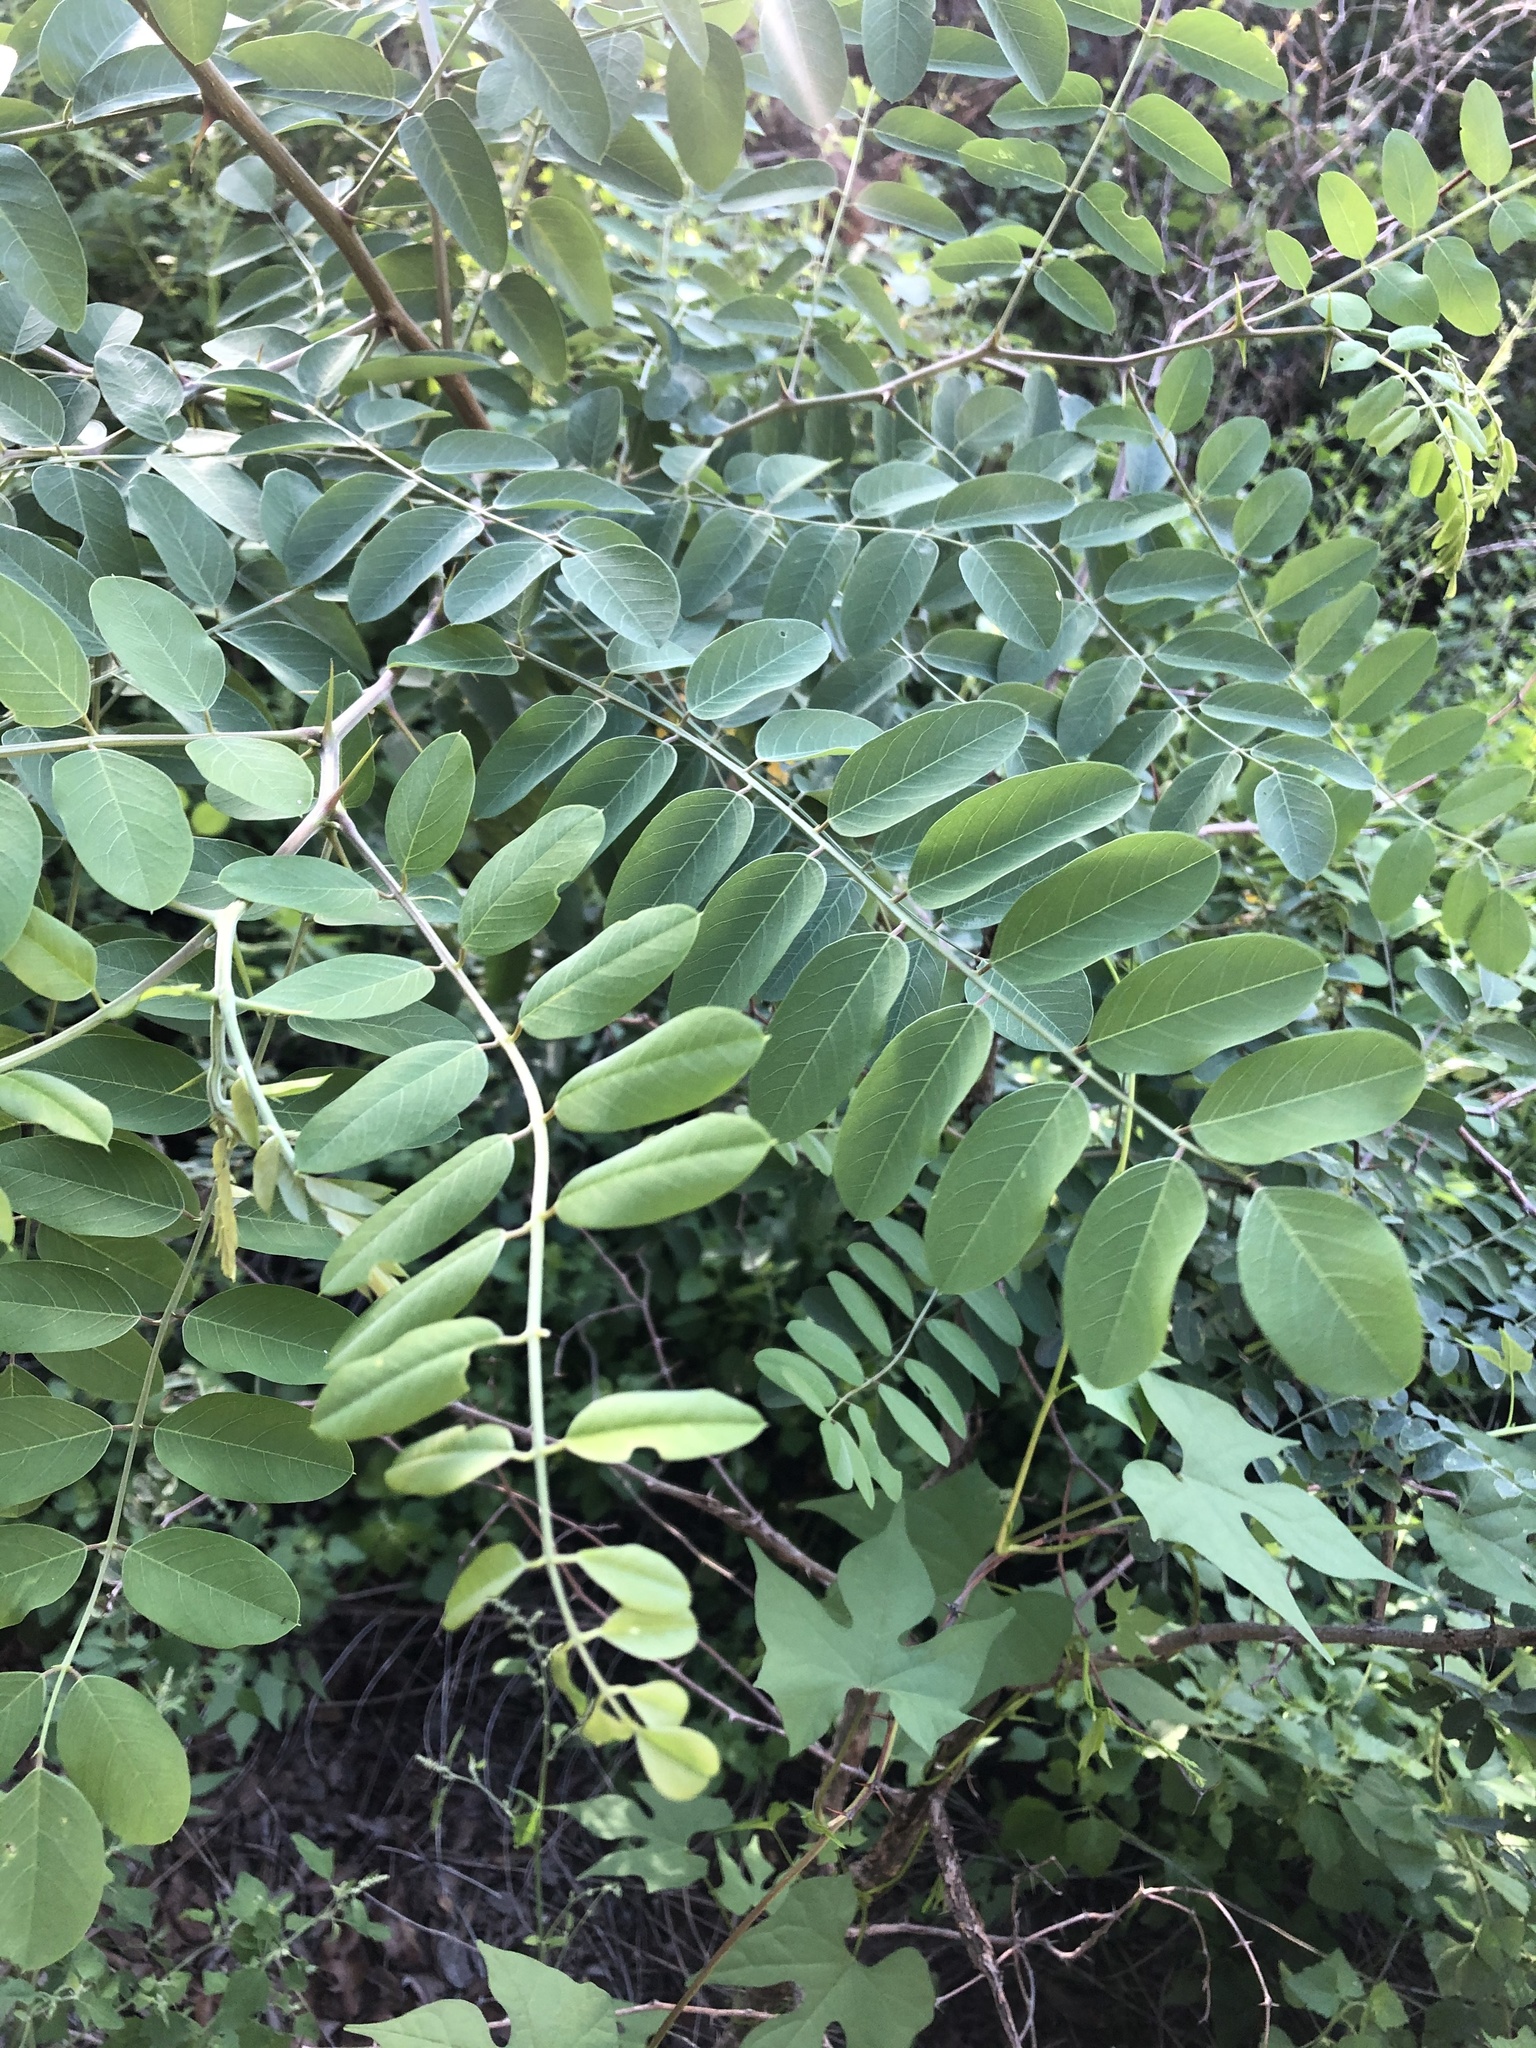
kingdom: Plantae
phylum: Tracheophyta
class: Magnoliopsida
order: Fabales
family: Fabaceae
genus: Robinia
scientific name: Robinia neomexicana
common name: New mexico locust
